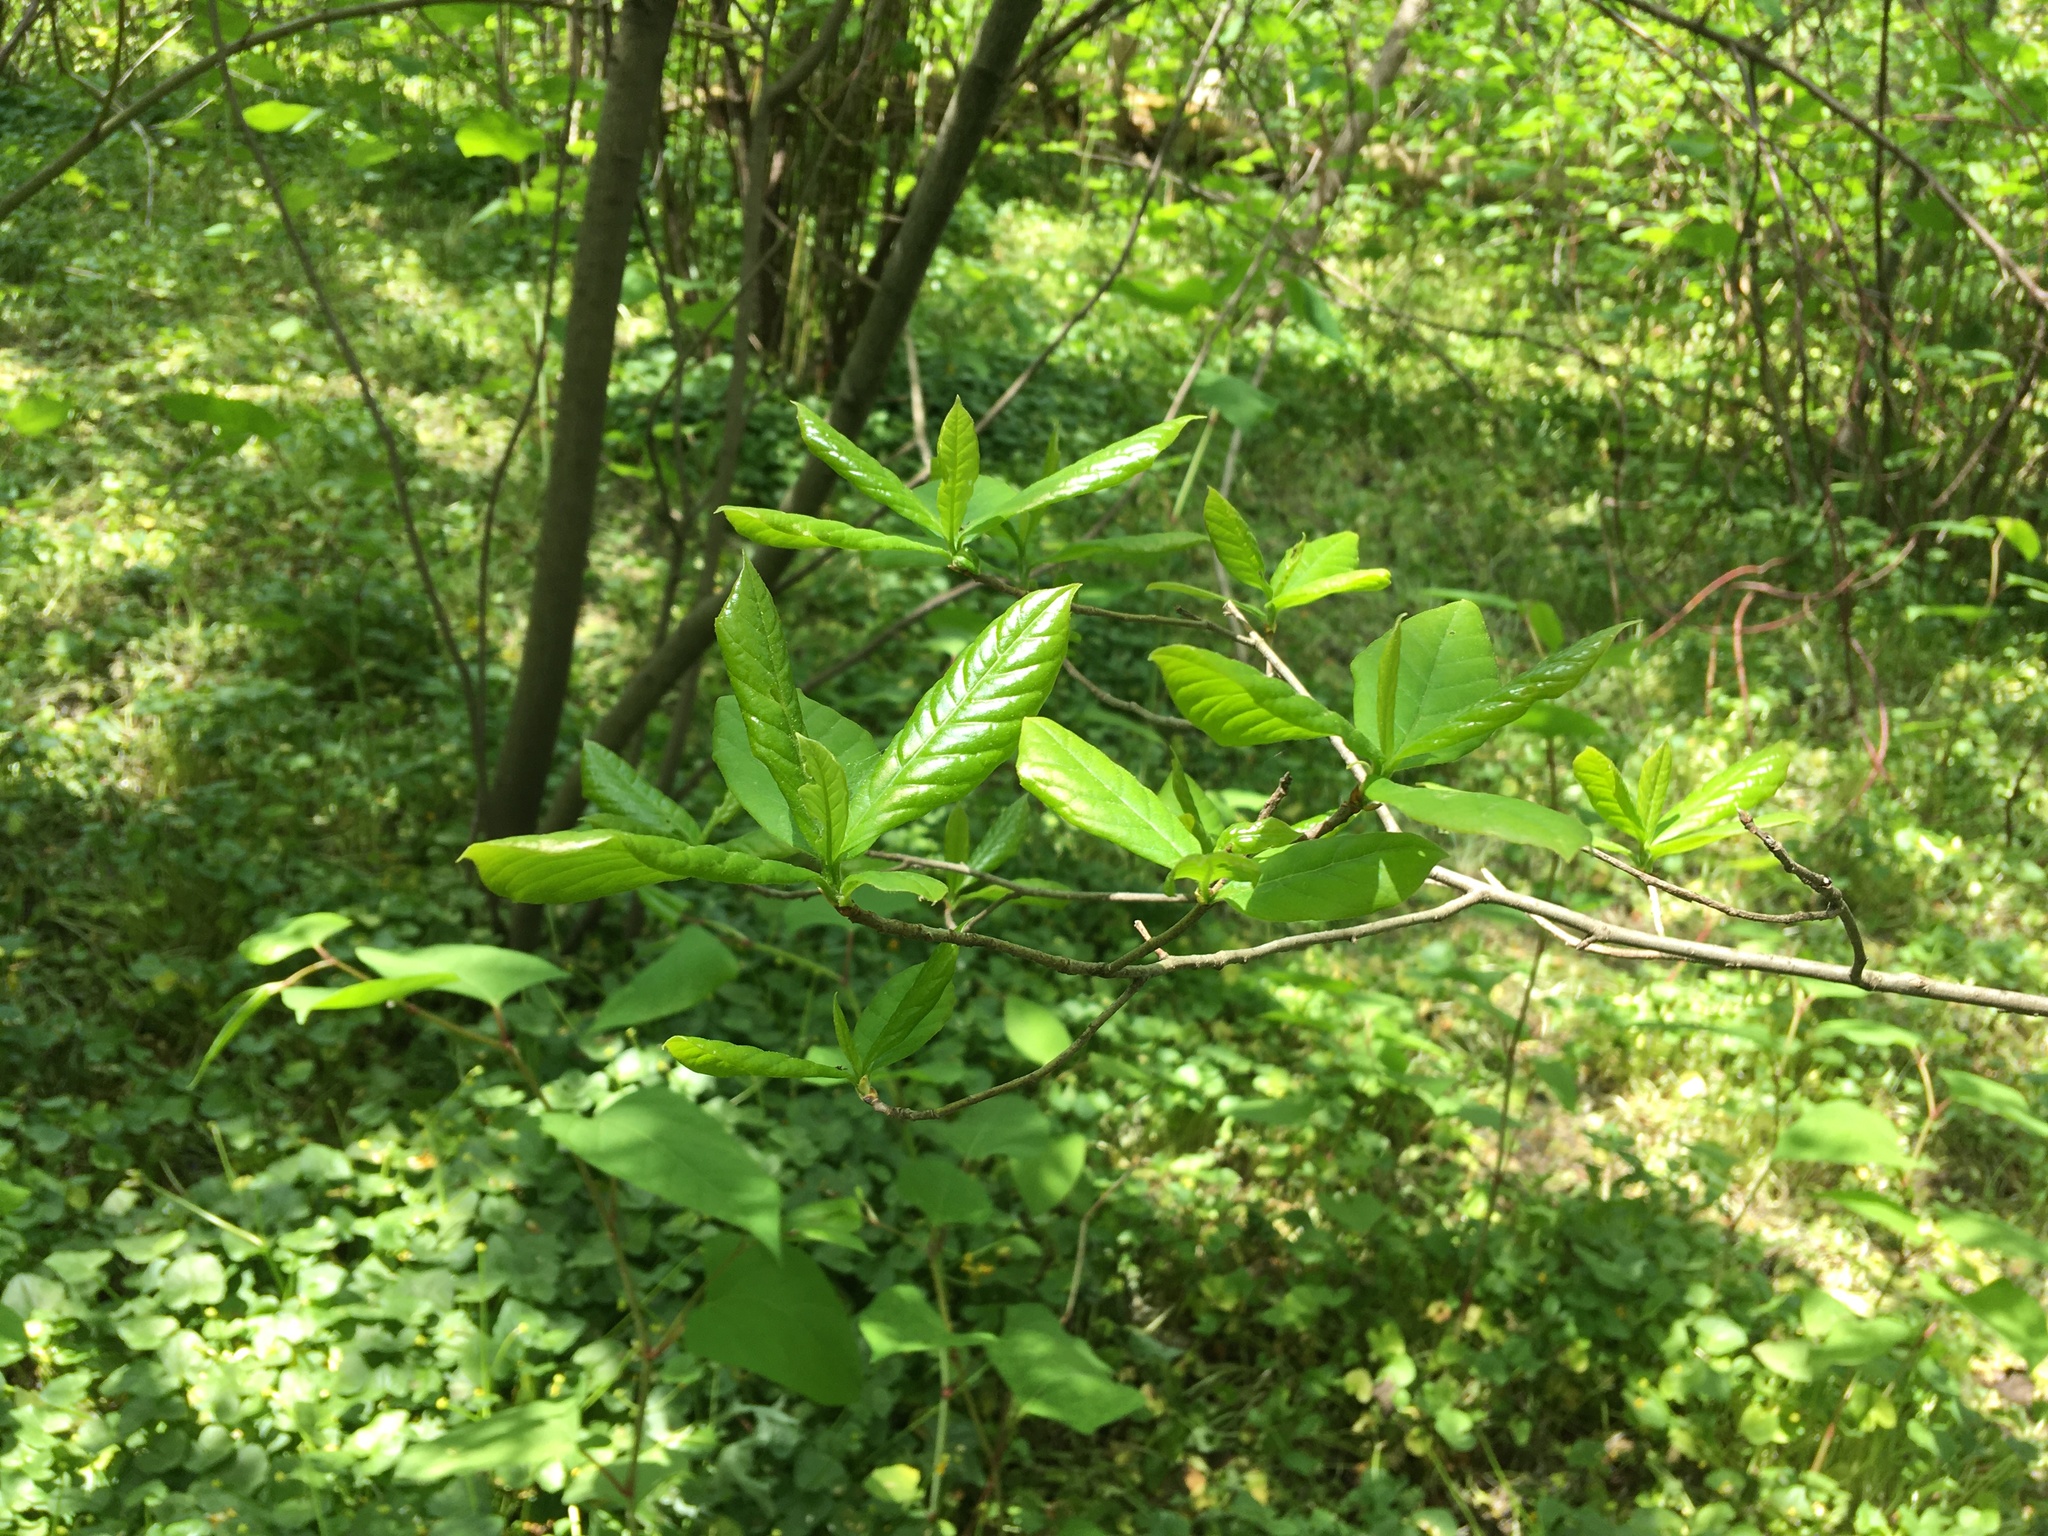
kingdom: Plantae
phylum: Tracheophyta
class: Magnoliopsida
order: Cornales
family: Nyssaceae
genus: Nyssa
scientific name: Nyssa sylvatica
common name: Black tupelo
